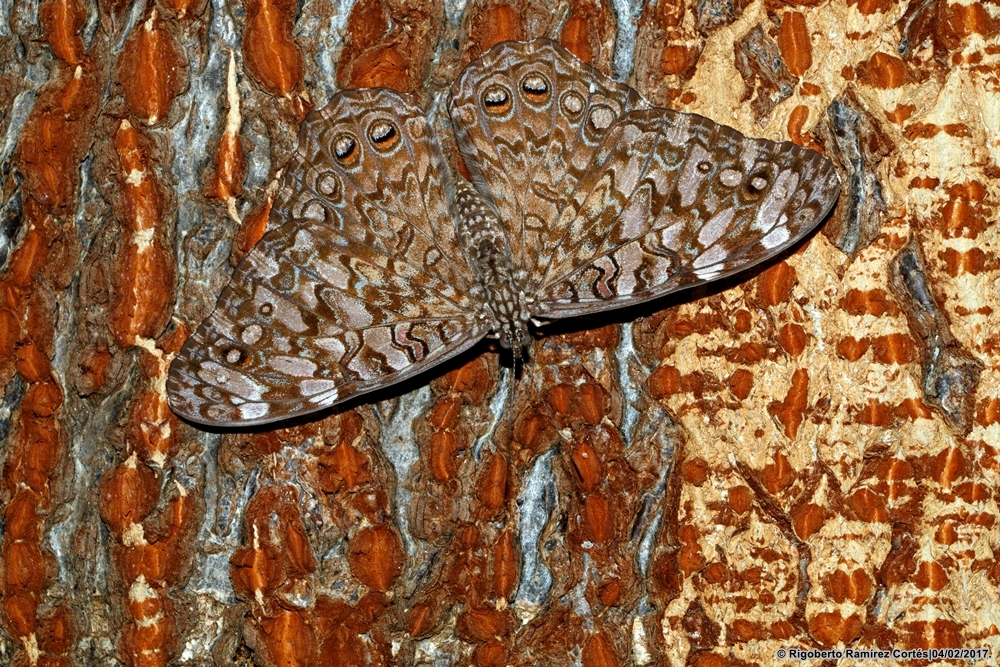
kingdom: Animalia
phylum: Arthropoda
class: Insecta
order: Lepidoptera
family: Nymphalidae
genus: Hamadryas
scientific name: Hamadryas februa
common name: Gray cracker
